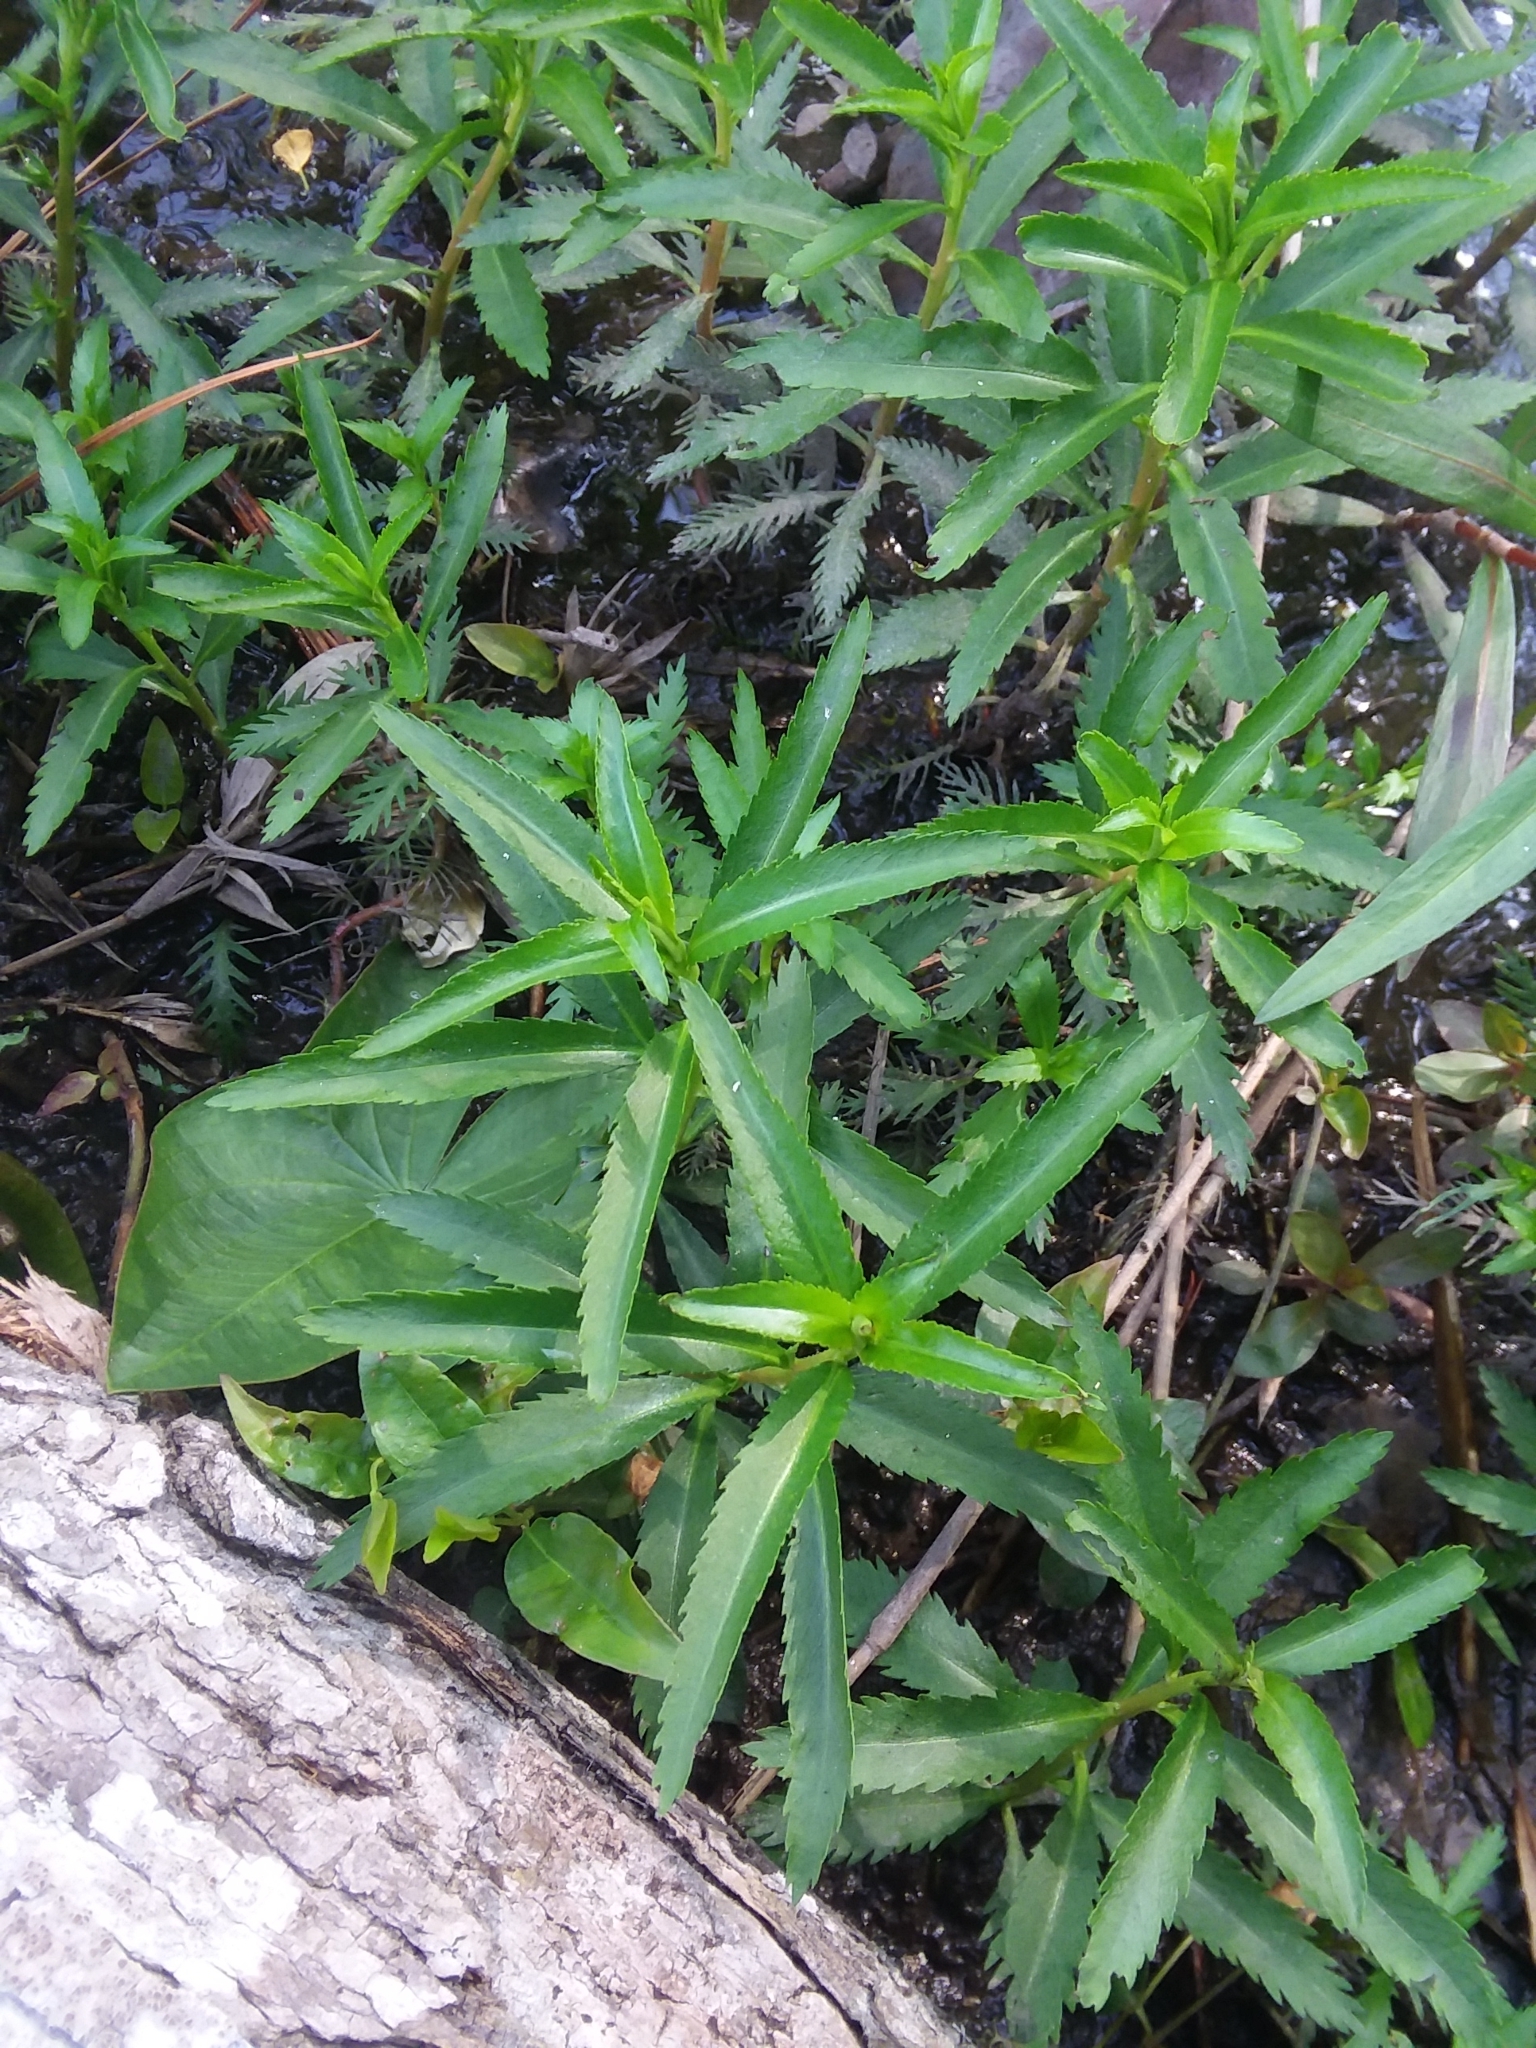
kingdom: Plantae
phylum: Tracheophyta
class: Magnoliopsida
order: Saxifragales
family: Haloragaceae
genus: Proserpinaca
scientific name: Proserpinaca palustris
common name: Marsh mermaidweed
